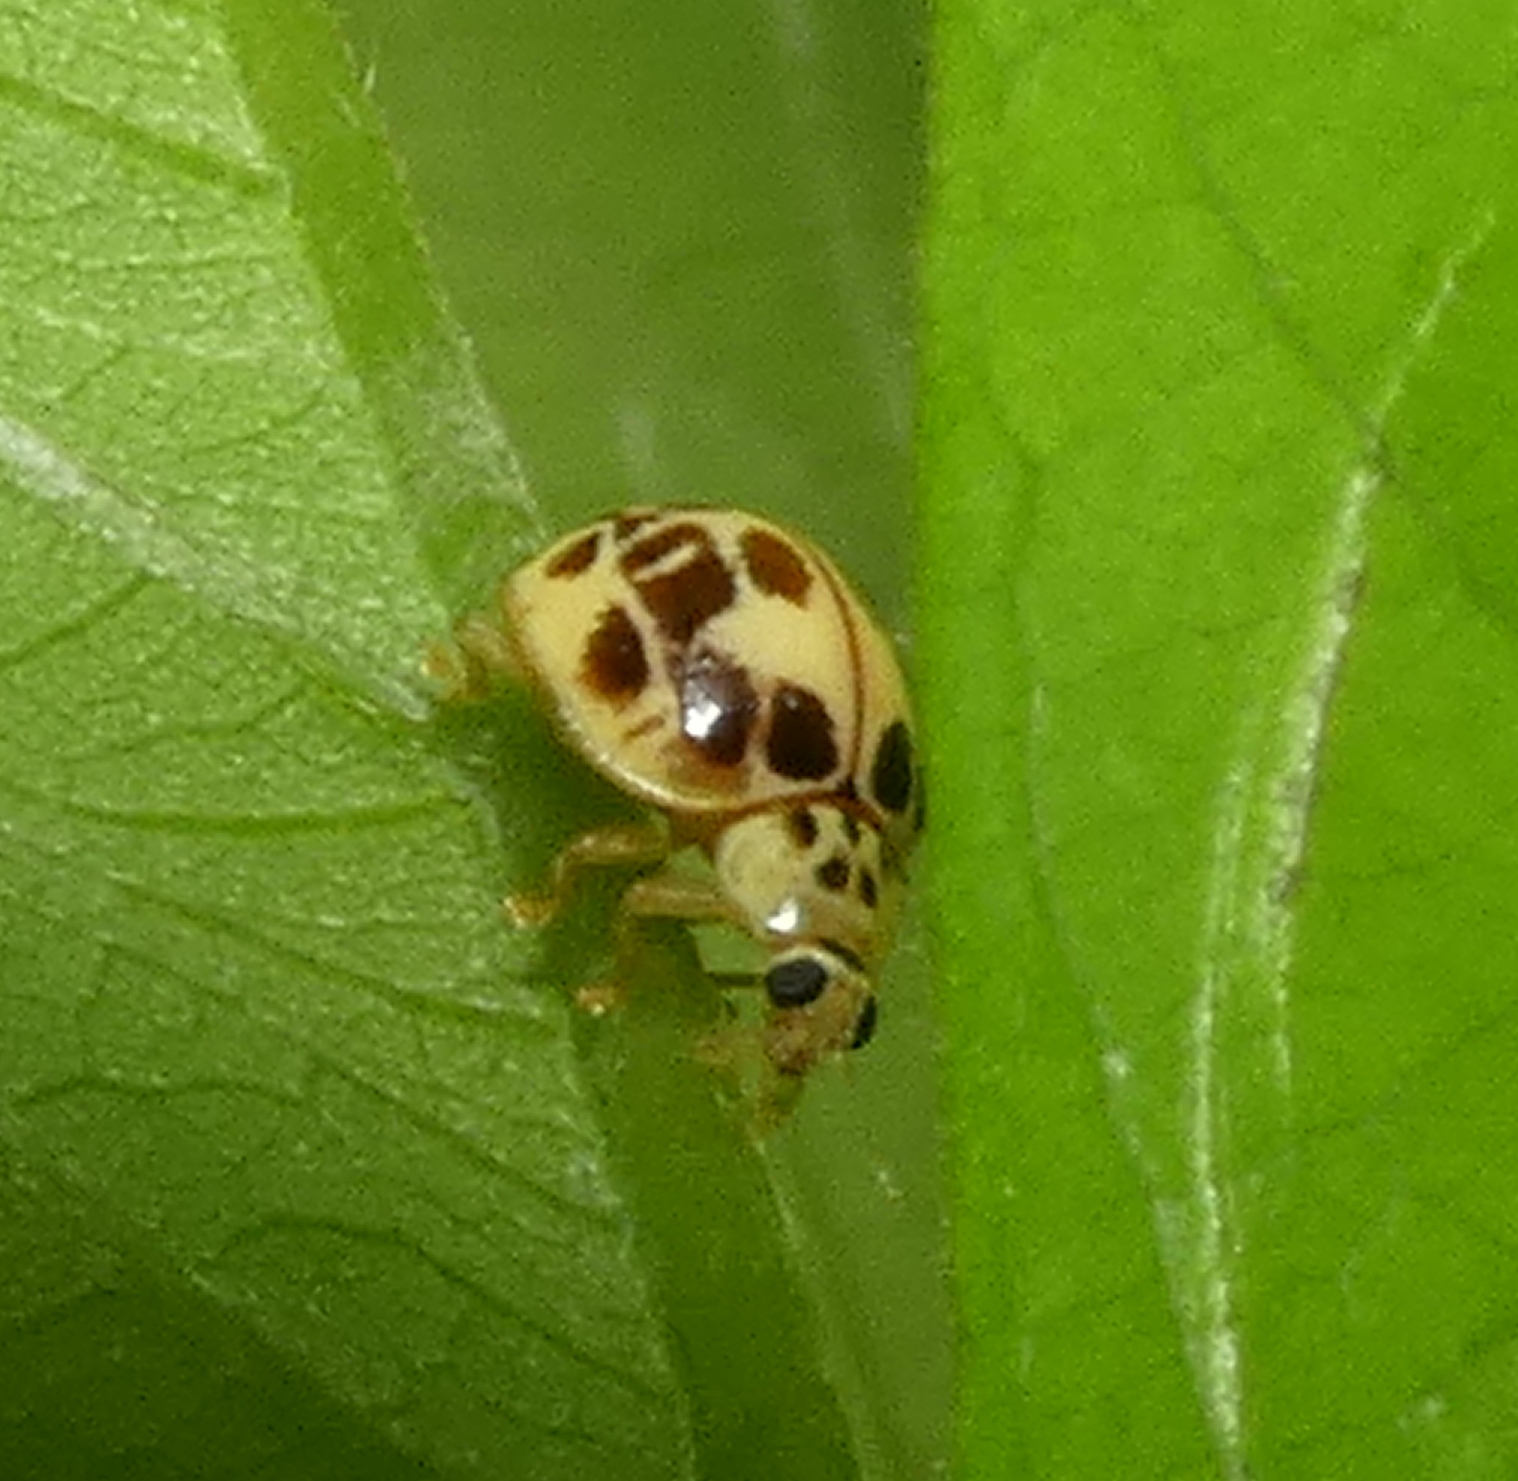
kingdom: Animalia
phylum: Arthropoda
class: Insecta
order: Coleoptera
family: Coccinellidae
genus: Psyllobora
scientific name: Psyllobora confluens
